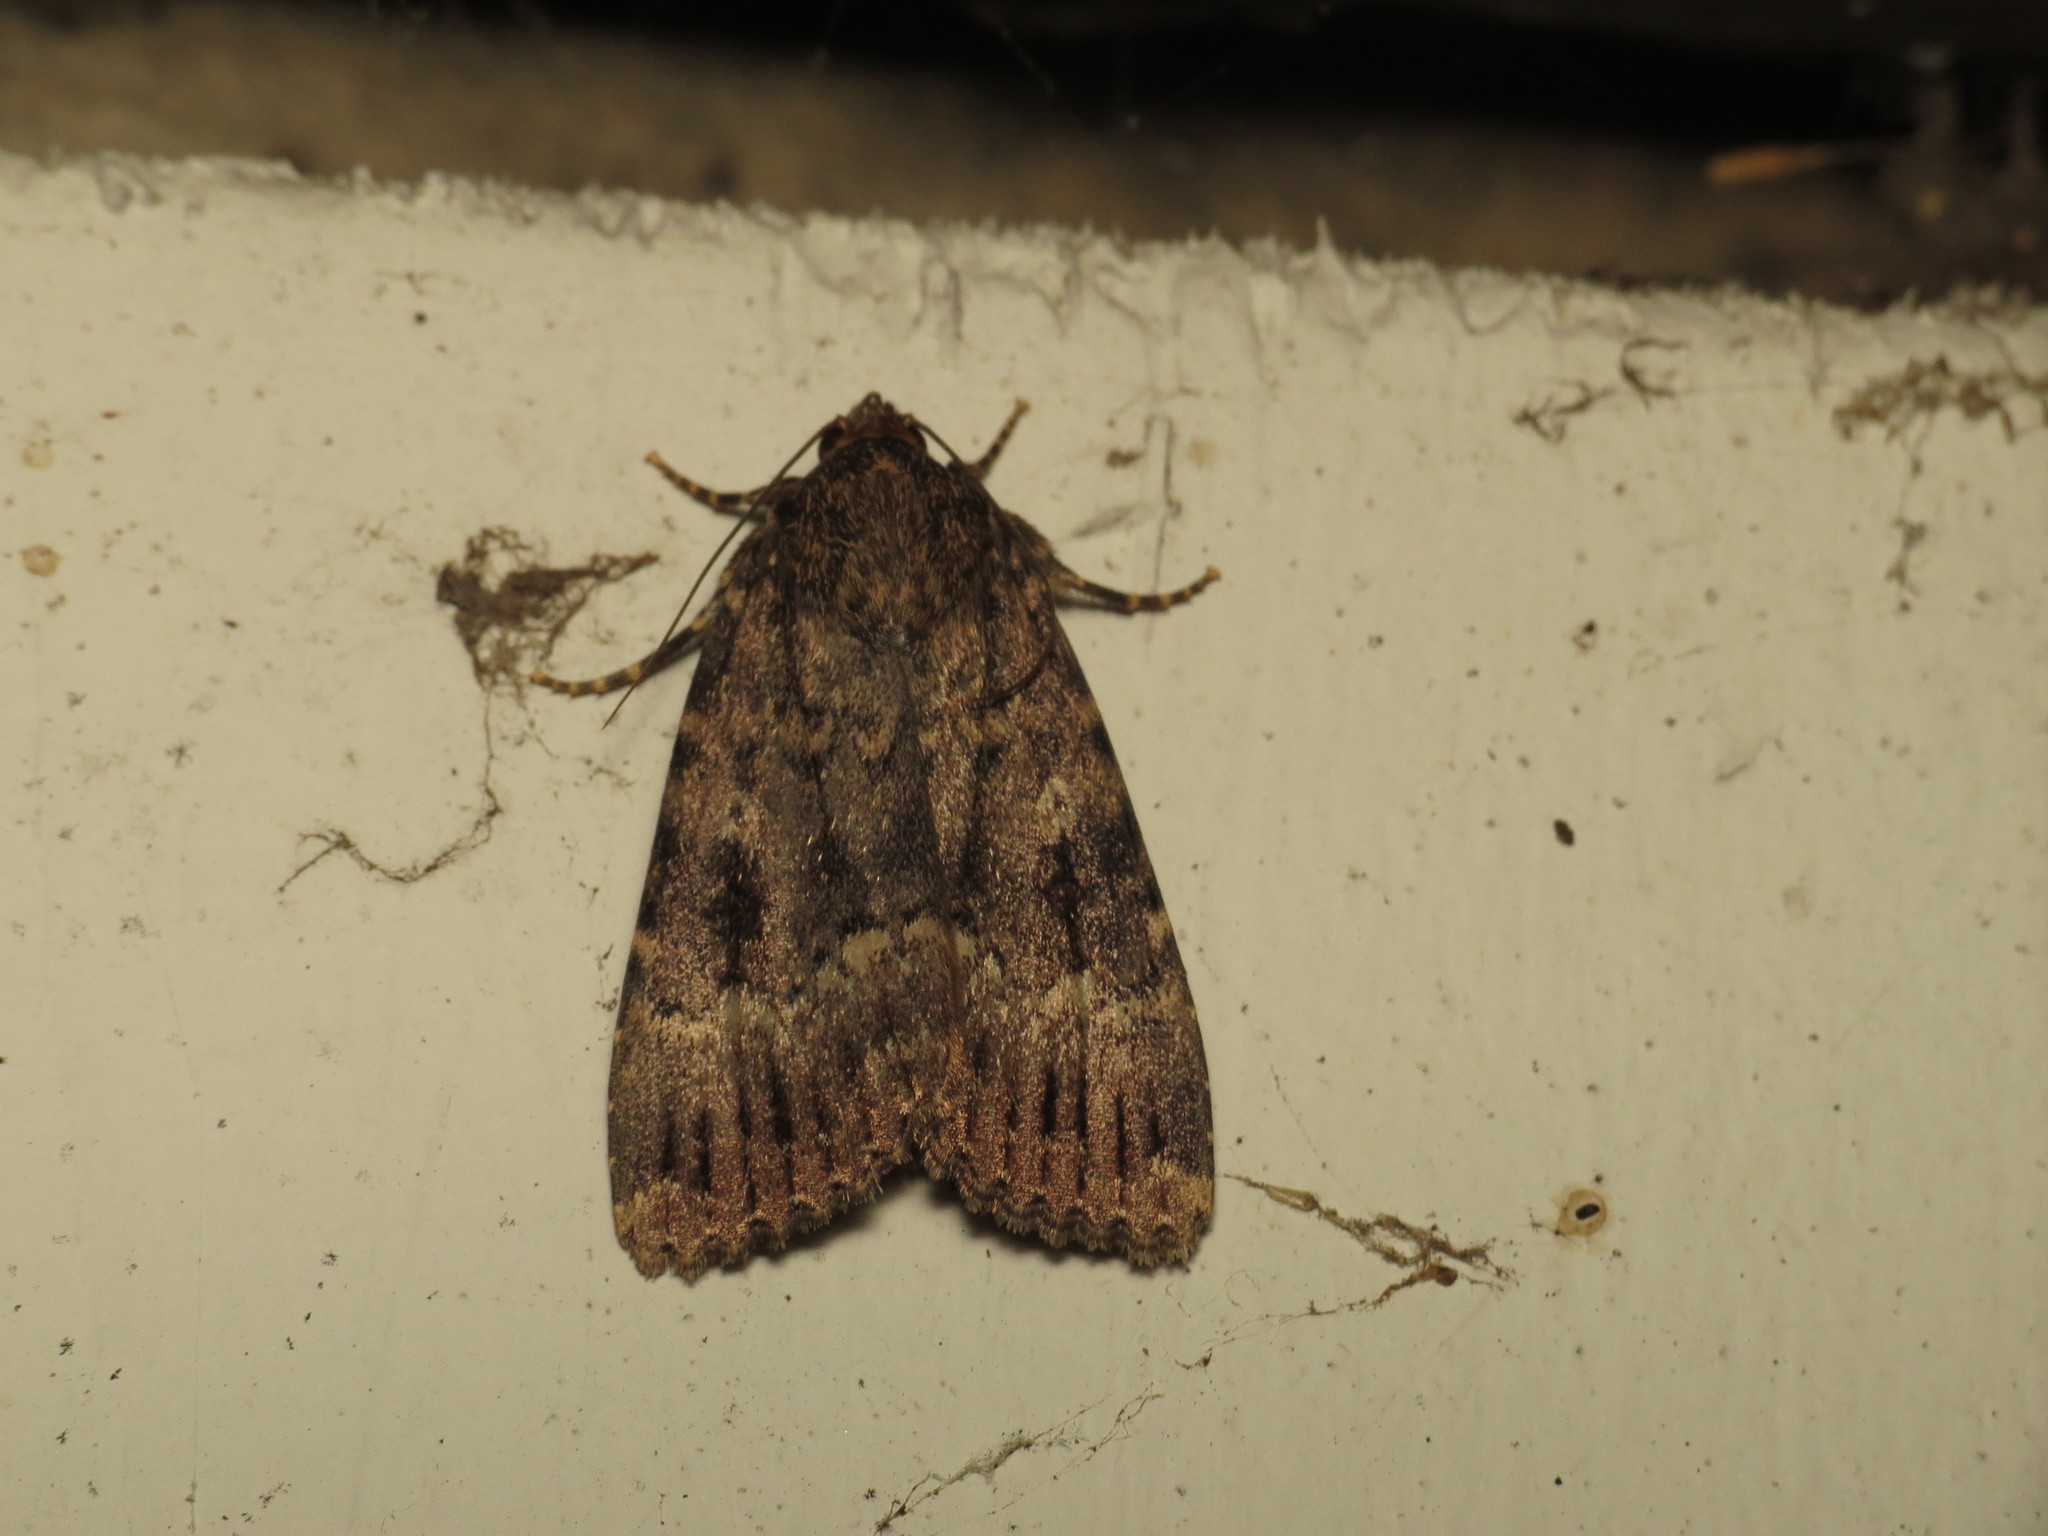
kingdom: Animalia
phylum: Arthropoda
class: Insecta
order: Lepidoptera
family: Noctuidae
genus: Amphipyra
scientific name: Amphipyra berbera
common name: Svensson's copper underwing
